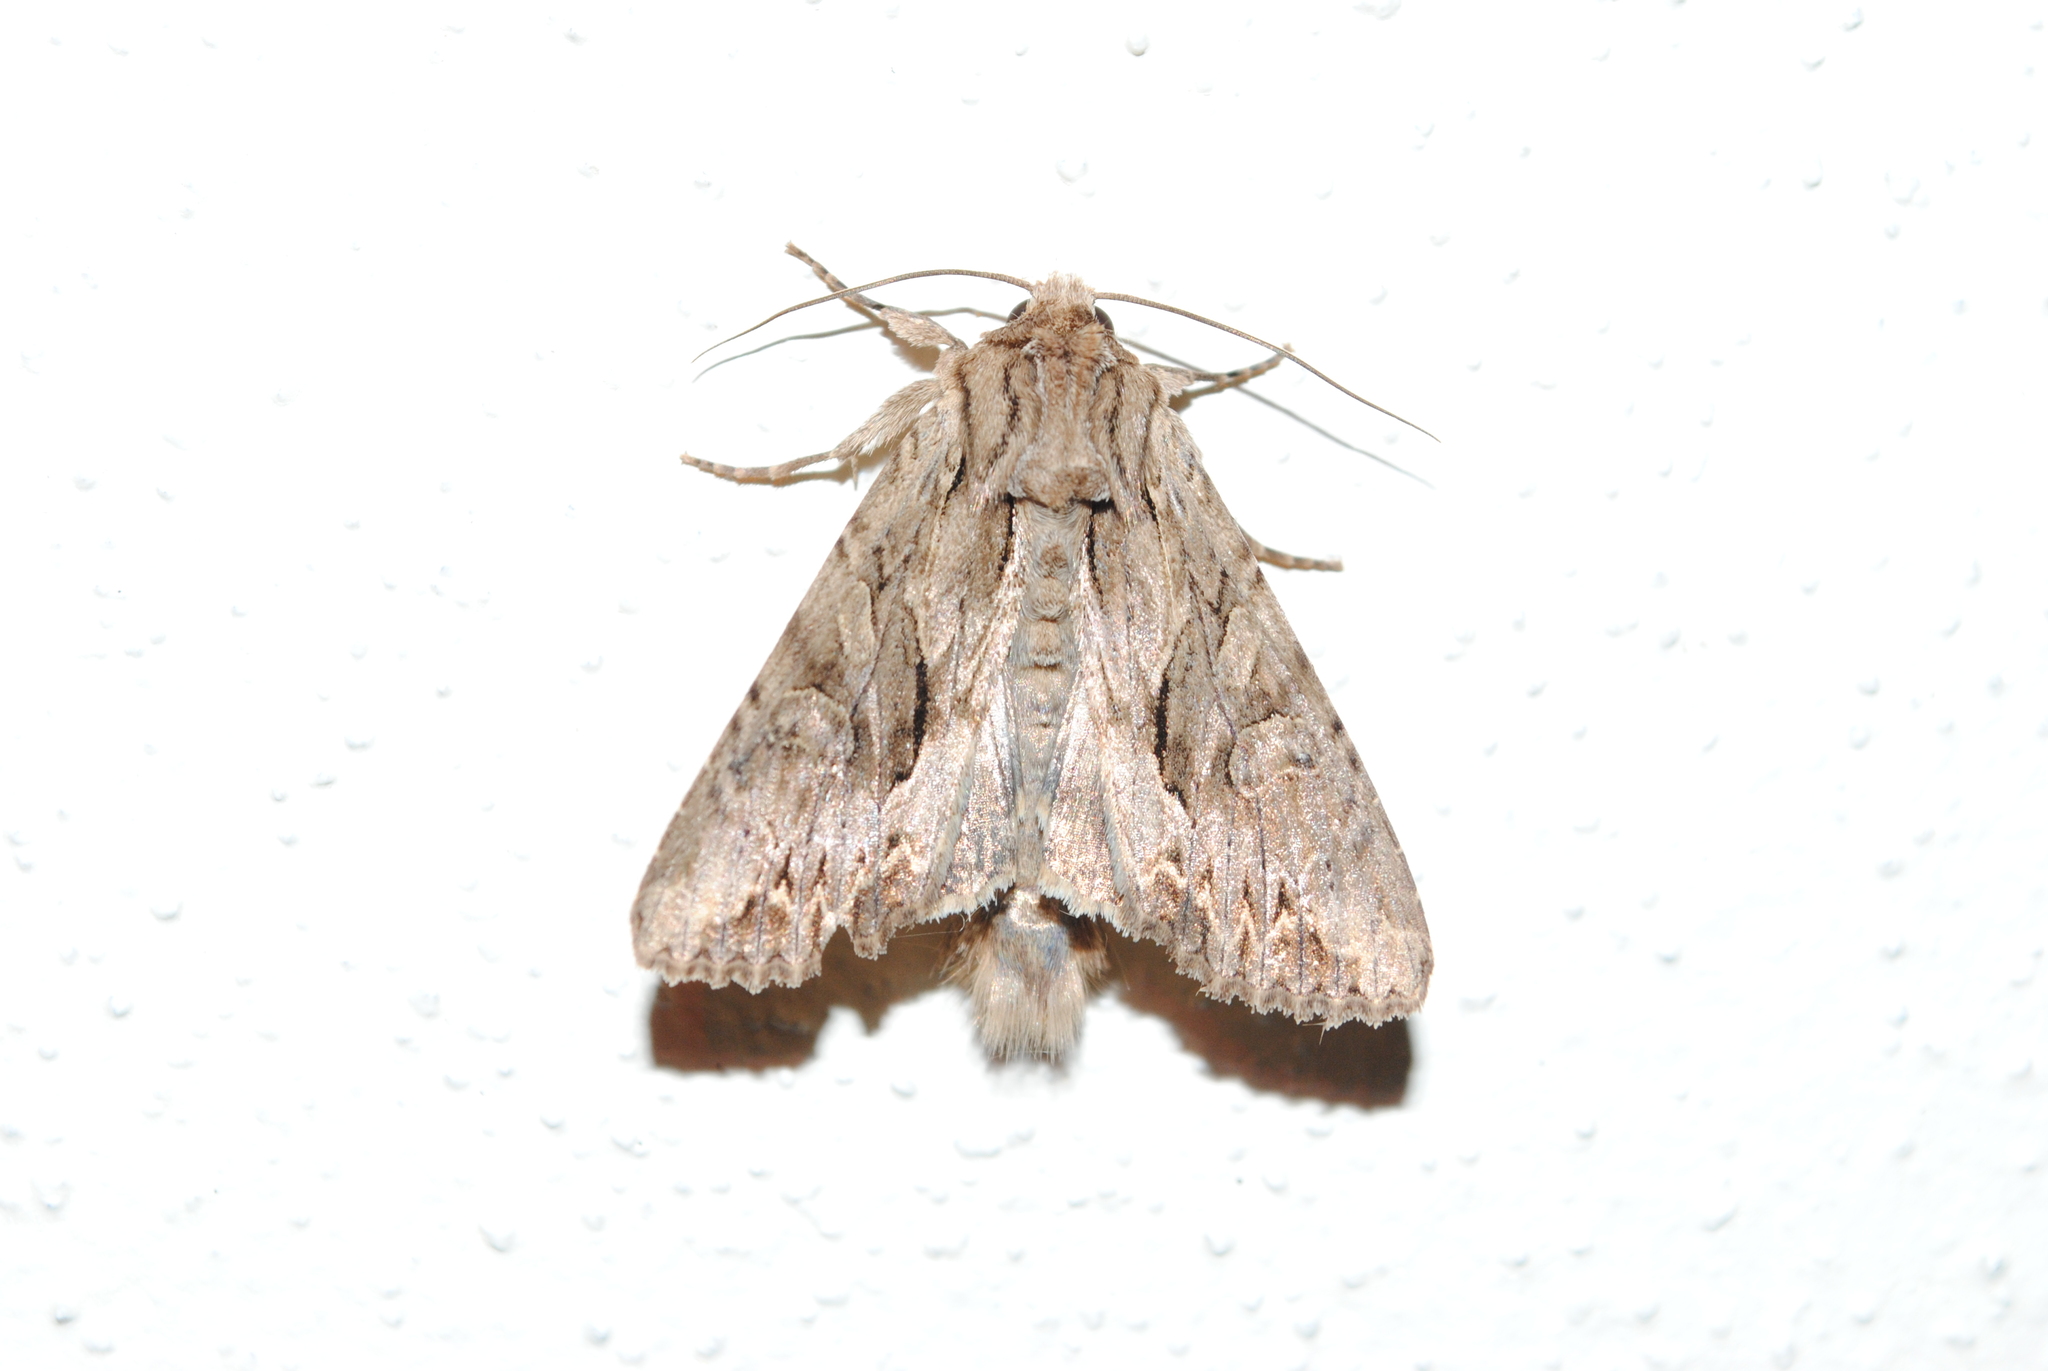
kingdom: Animalia
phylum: Arthropoda
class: Insecta
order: Lepidoptera
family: Noctuidae
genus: Apamea
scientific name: Apamea monoglypha
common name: Dark arches
